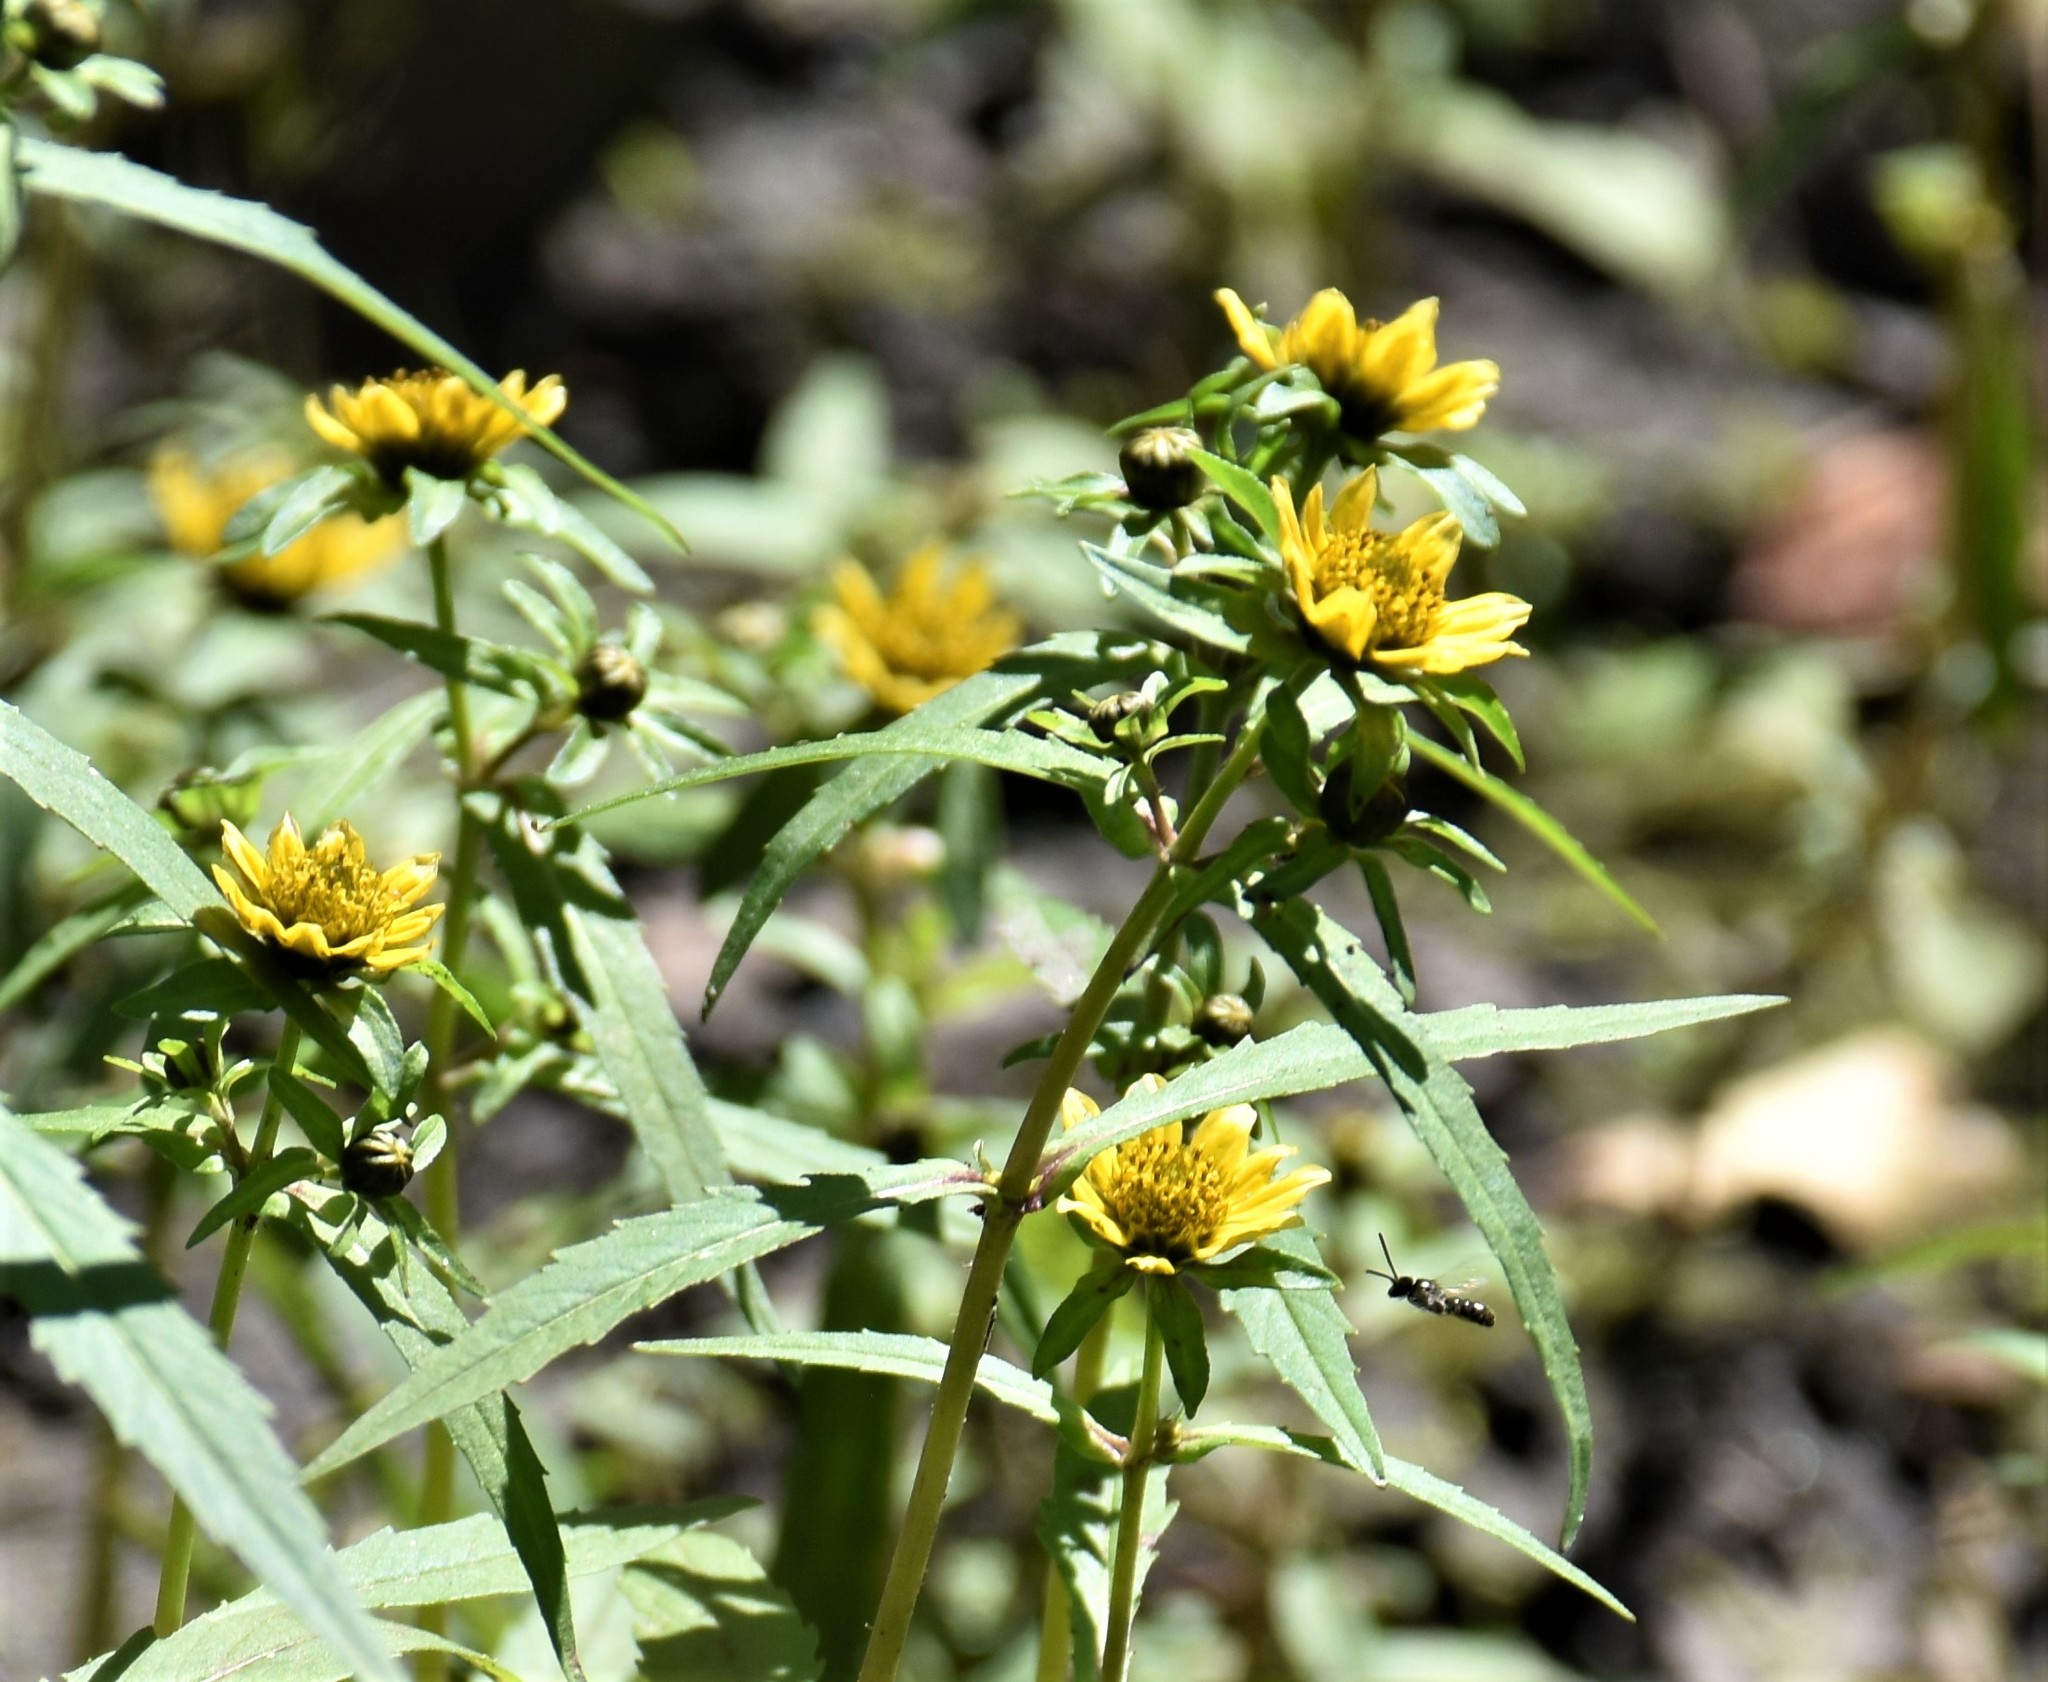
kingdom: Plantae
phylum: Tracheophyta
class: Magnoliopsida
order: Asterales
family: Asteraceae
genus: Bidens
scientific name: Bidens cernua
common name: Nodding bur-marigold
